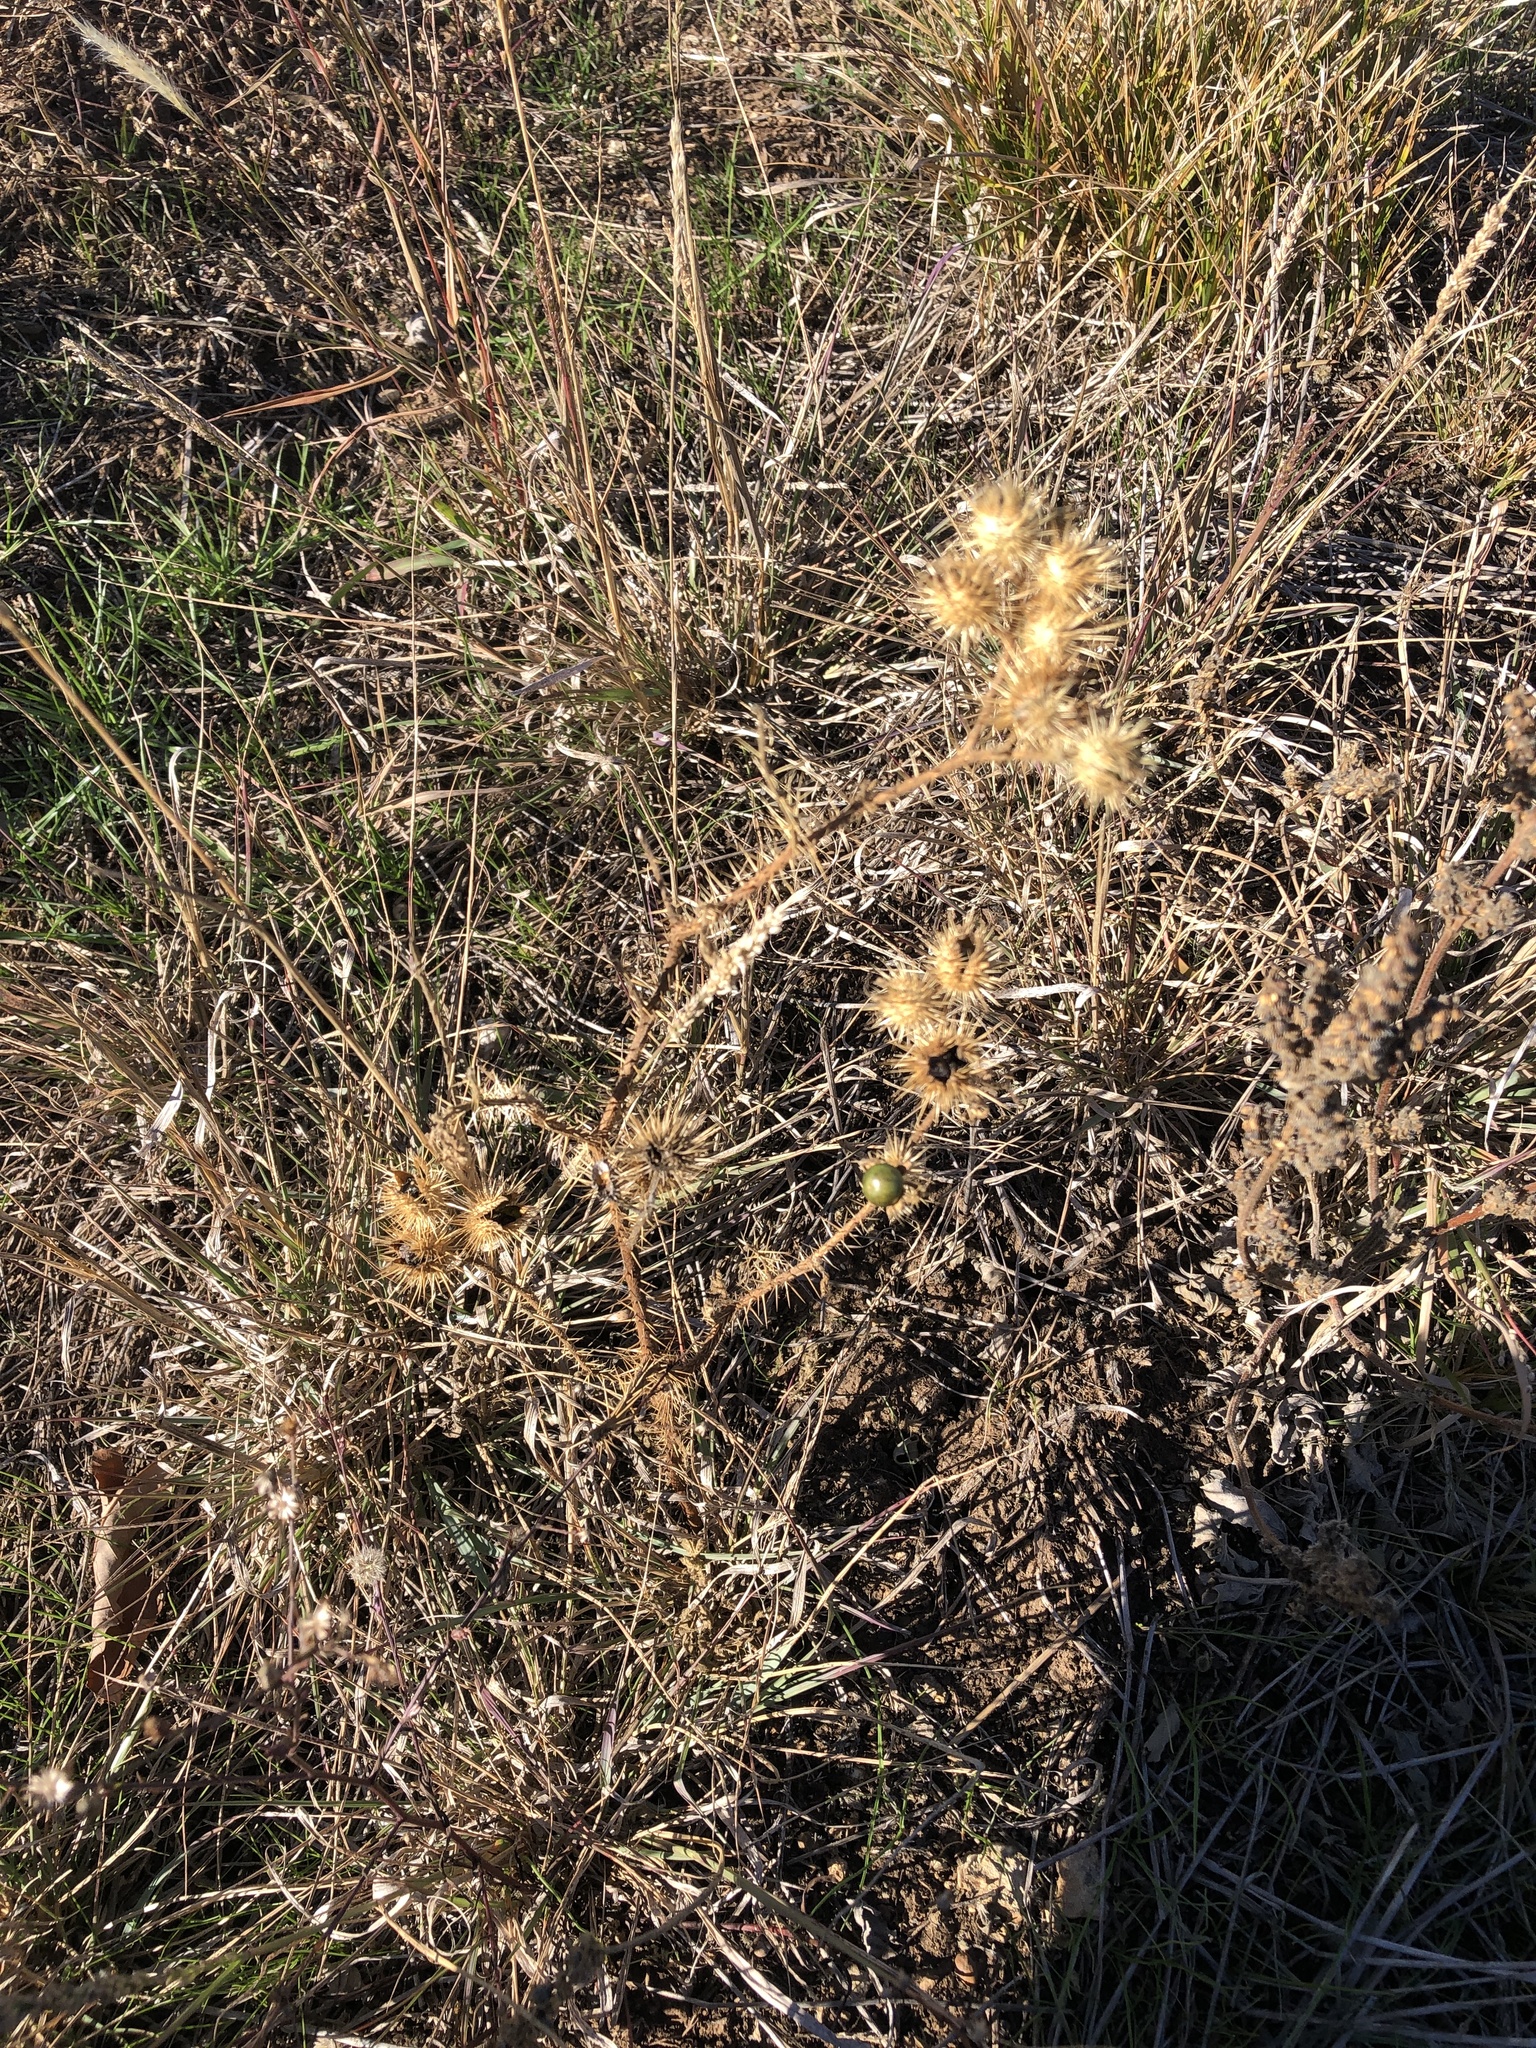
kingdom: Plantae
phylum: Tracheophyta
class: Magnoliopsida
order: Solanales
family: Solanaceae
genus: Solanum
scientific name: Solanum angustifolium
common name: Buffalobur nightshade
